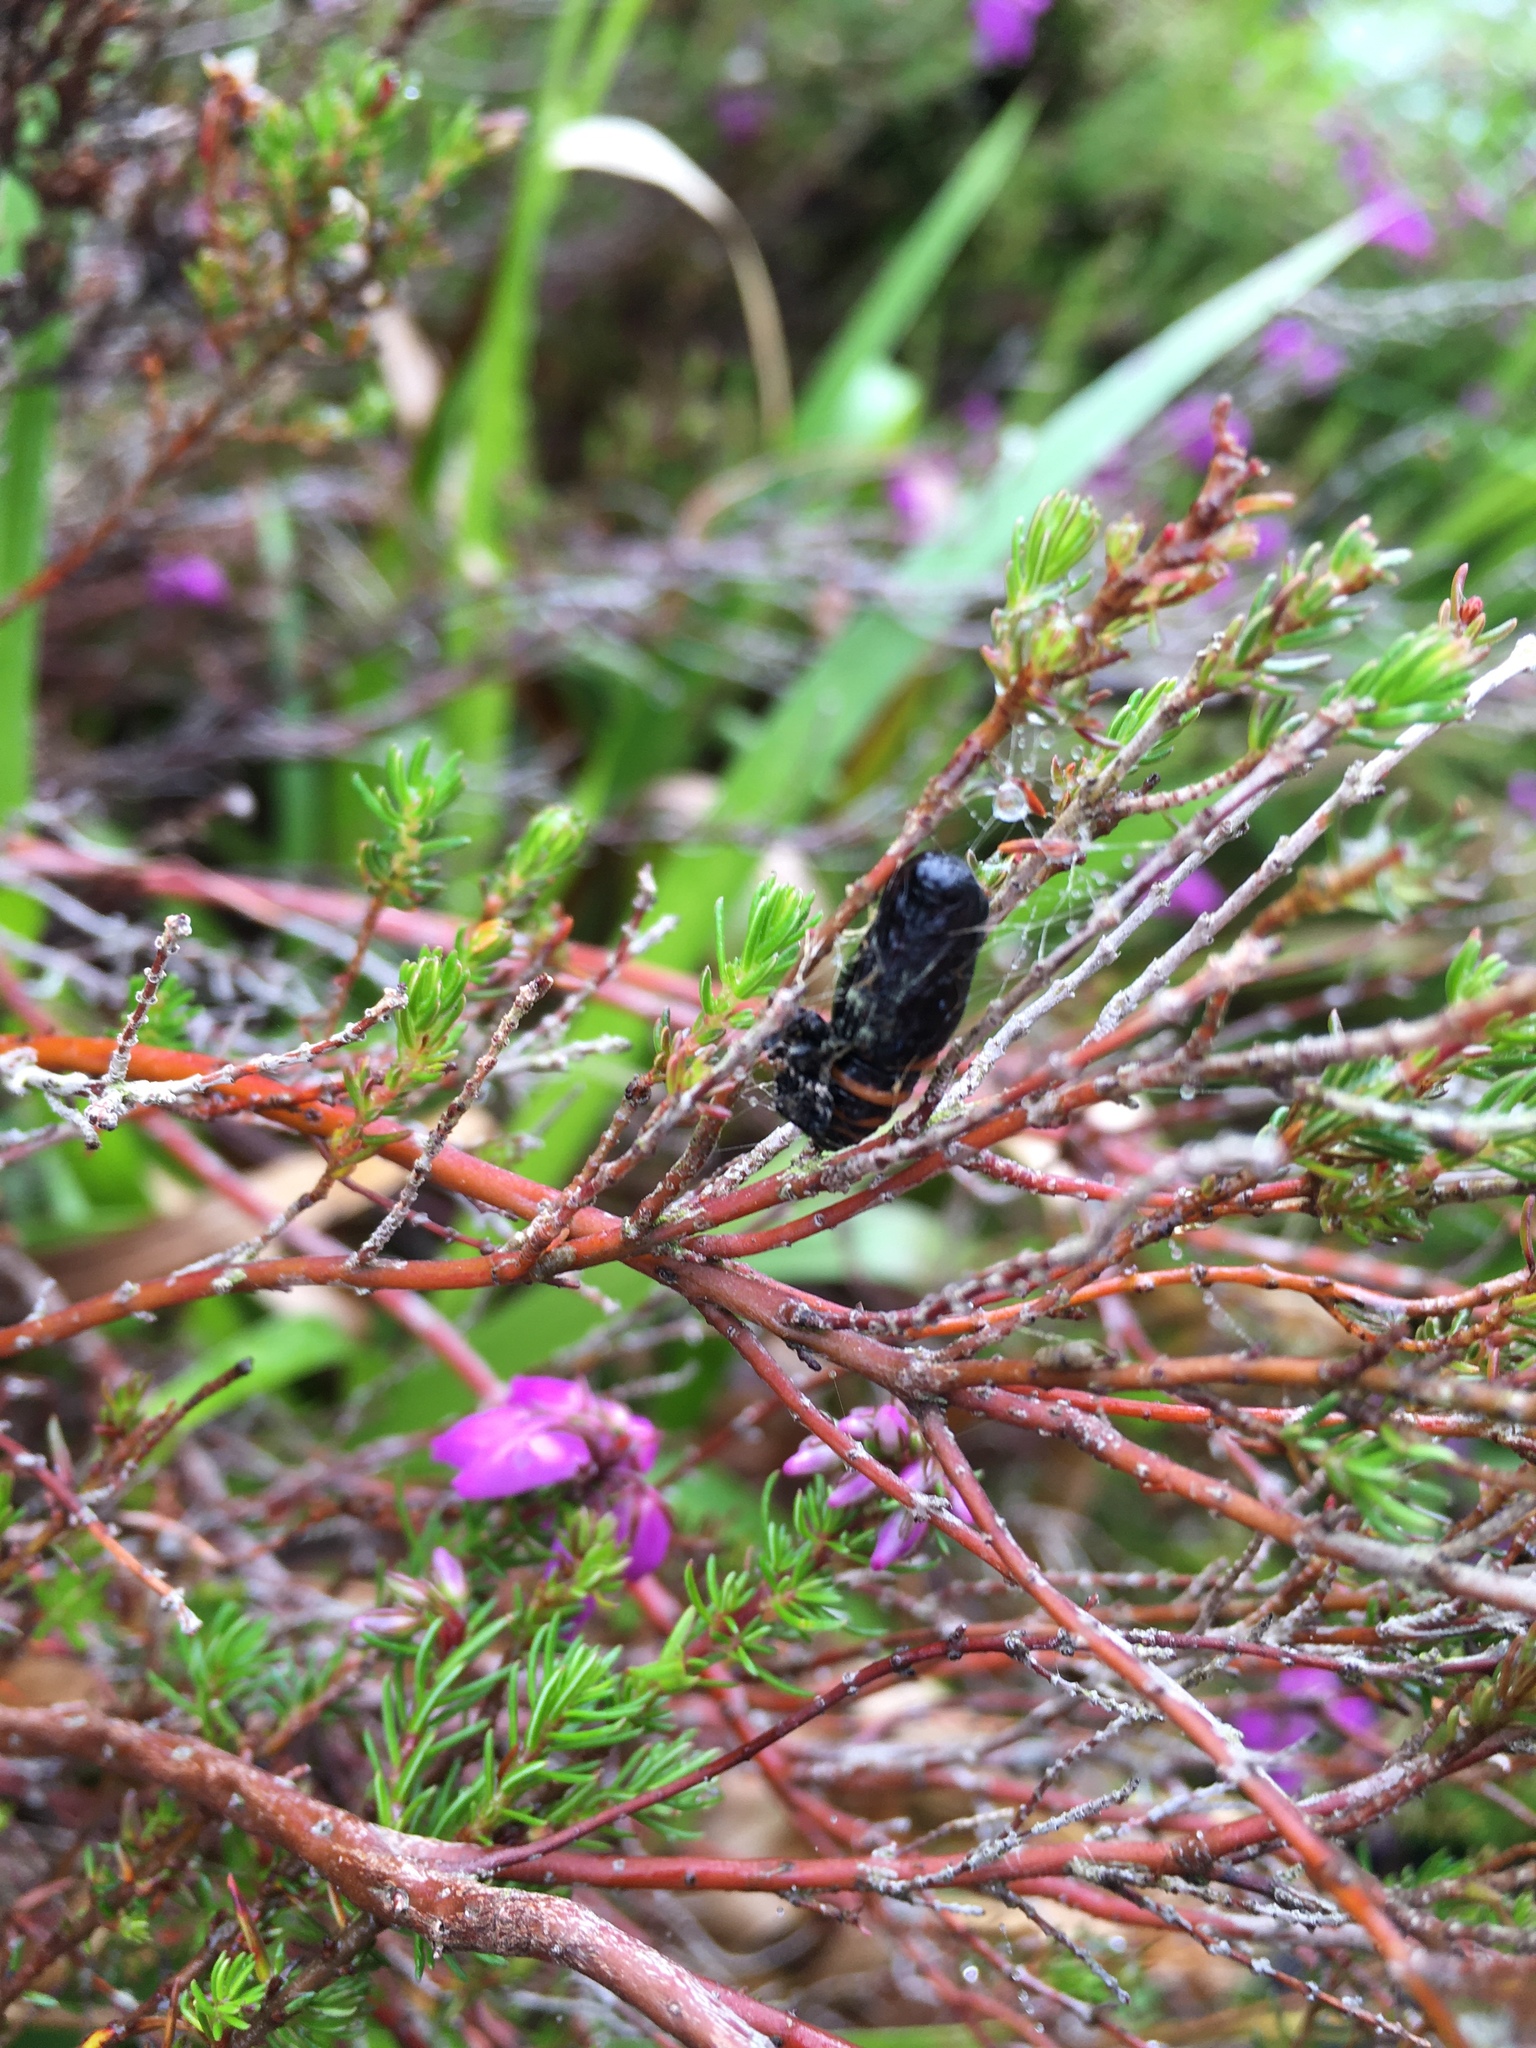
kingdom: Animalia
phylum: Arthropoda
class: Insecta
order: Lepidoptera
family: Geometridae
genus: Abraxas
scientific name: Abraxas grossulariata
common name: Magpie
